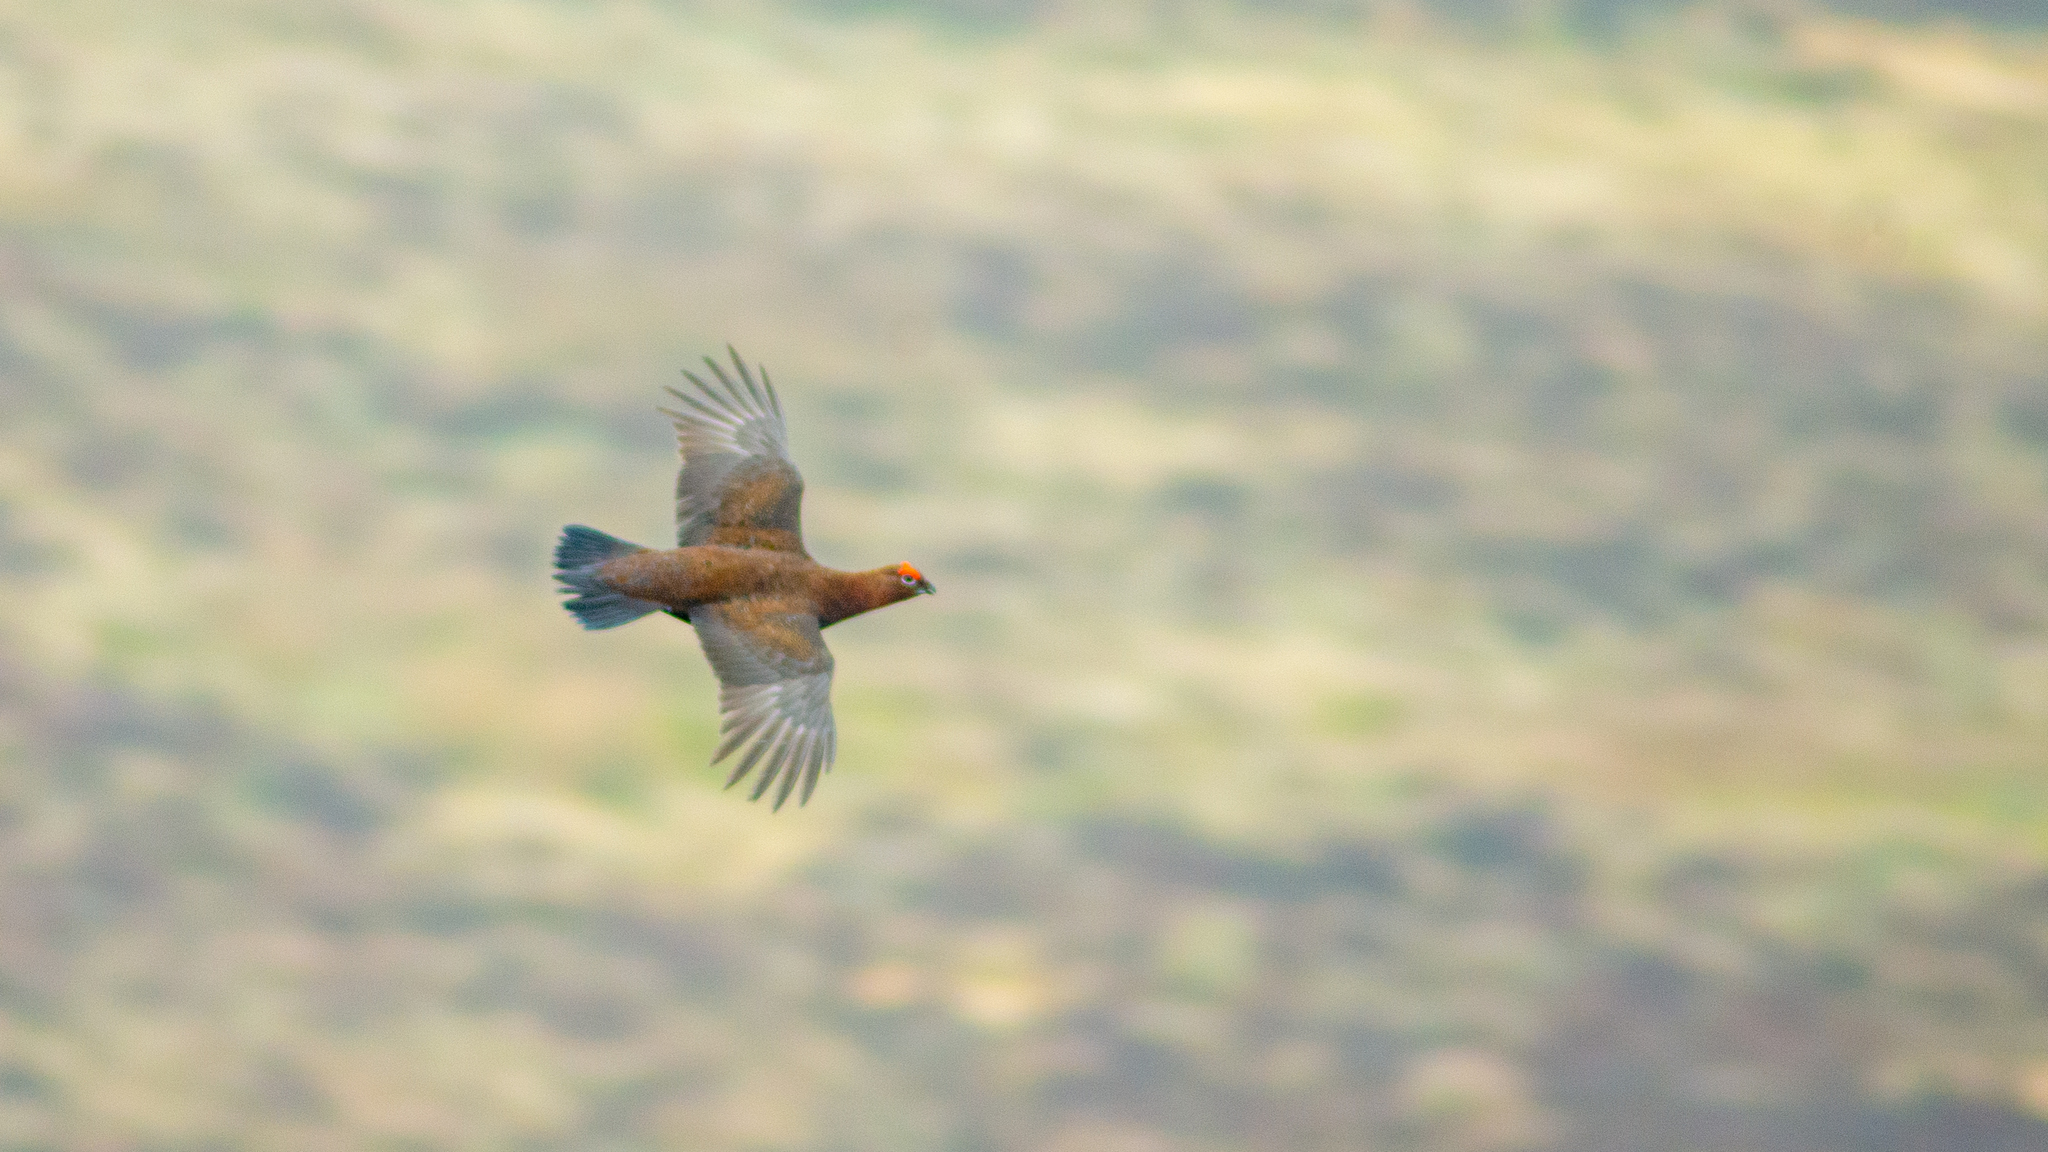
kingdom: Animalia
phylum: Chordata
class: Aves
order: Galliformes
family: Phasianidae
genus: Lagopus
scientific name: Lagopus lagopus
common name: Willow ptarmigan
